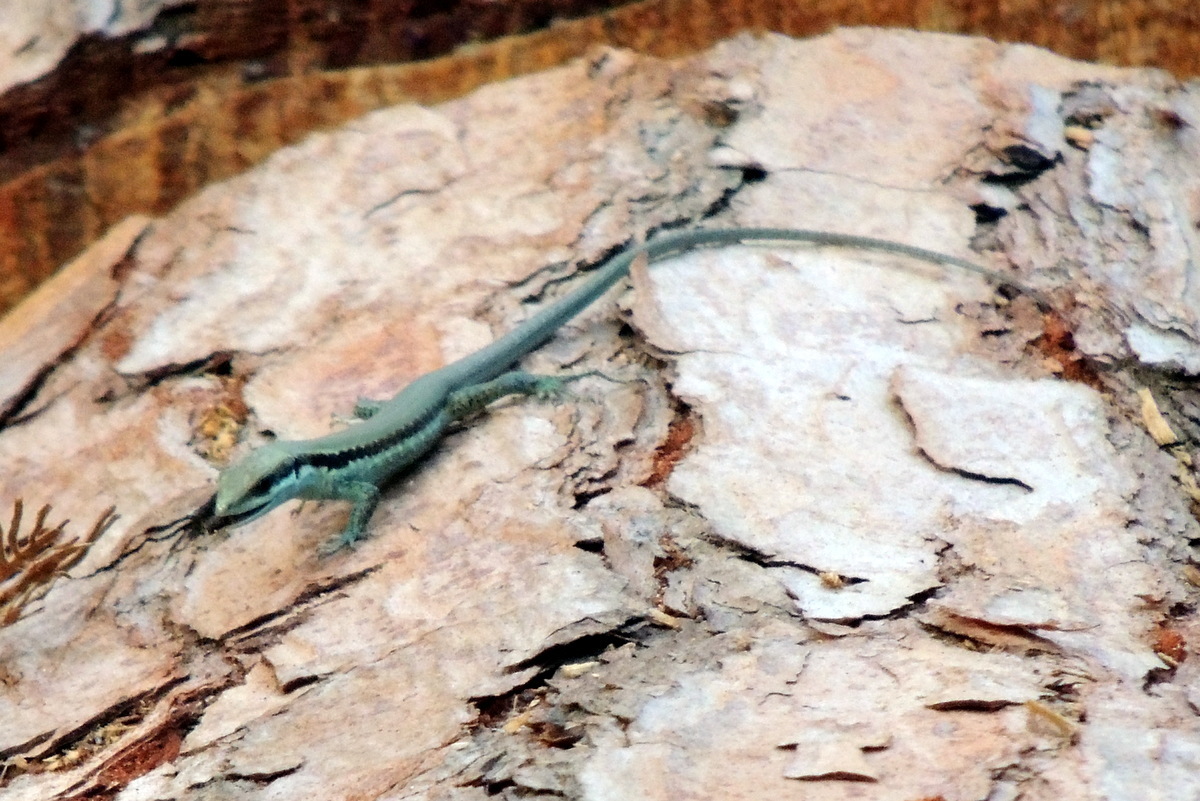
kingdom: Animalia
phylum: Chordata
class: Squamata
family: Lacertidae
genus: Phoenicolacerta
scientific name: Phoenicolacerta laevis
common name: Lebanon lizard
